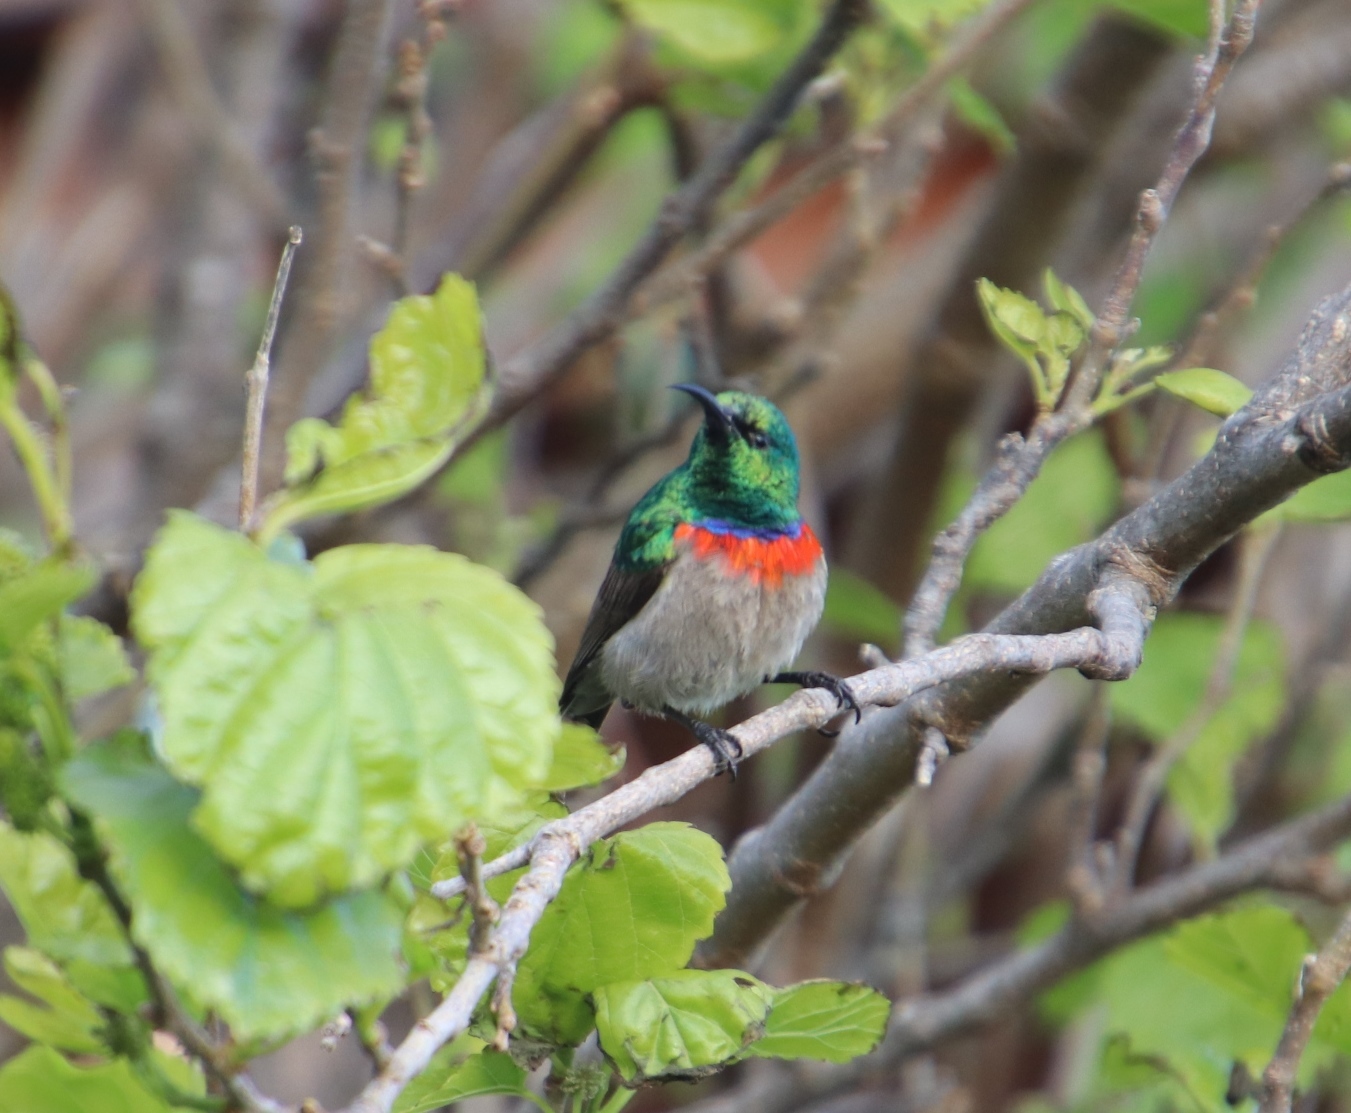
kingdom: Animalia
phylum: Chordata
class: Aves
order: Passeriformes
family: Nectariniidae
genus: Cinnyris
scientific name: Cinnyris chalybeus
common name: Southern double-collared sunbird
